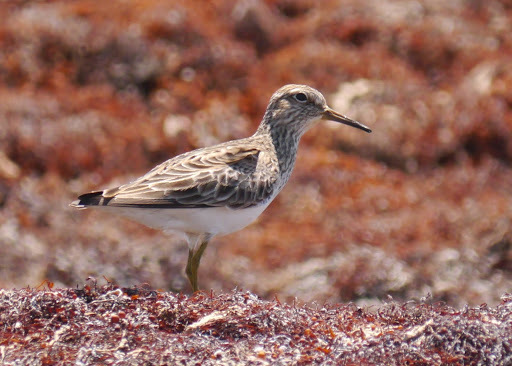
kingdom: Animalia
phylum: Chordata
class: Aves
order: Charadriiformes
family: Scolopacidae
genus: Calidris
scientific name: Calidris melanotos
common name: Pectoral sandpiper
